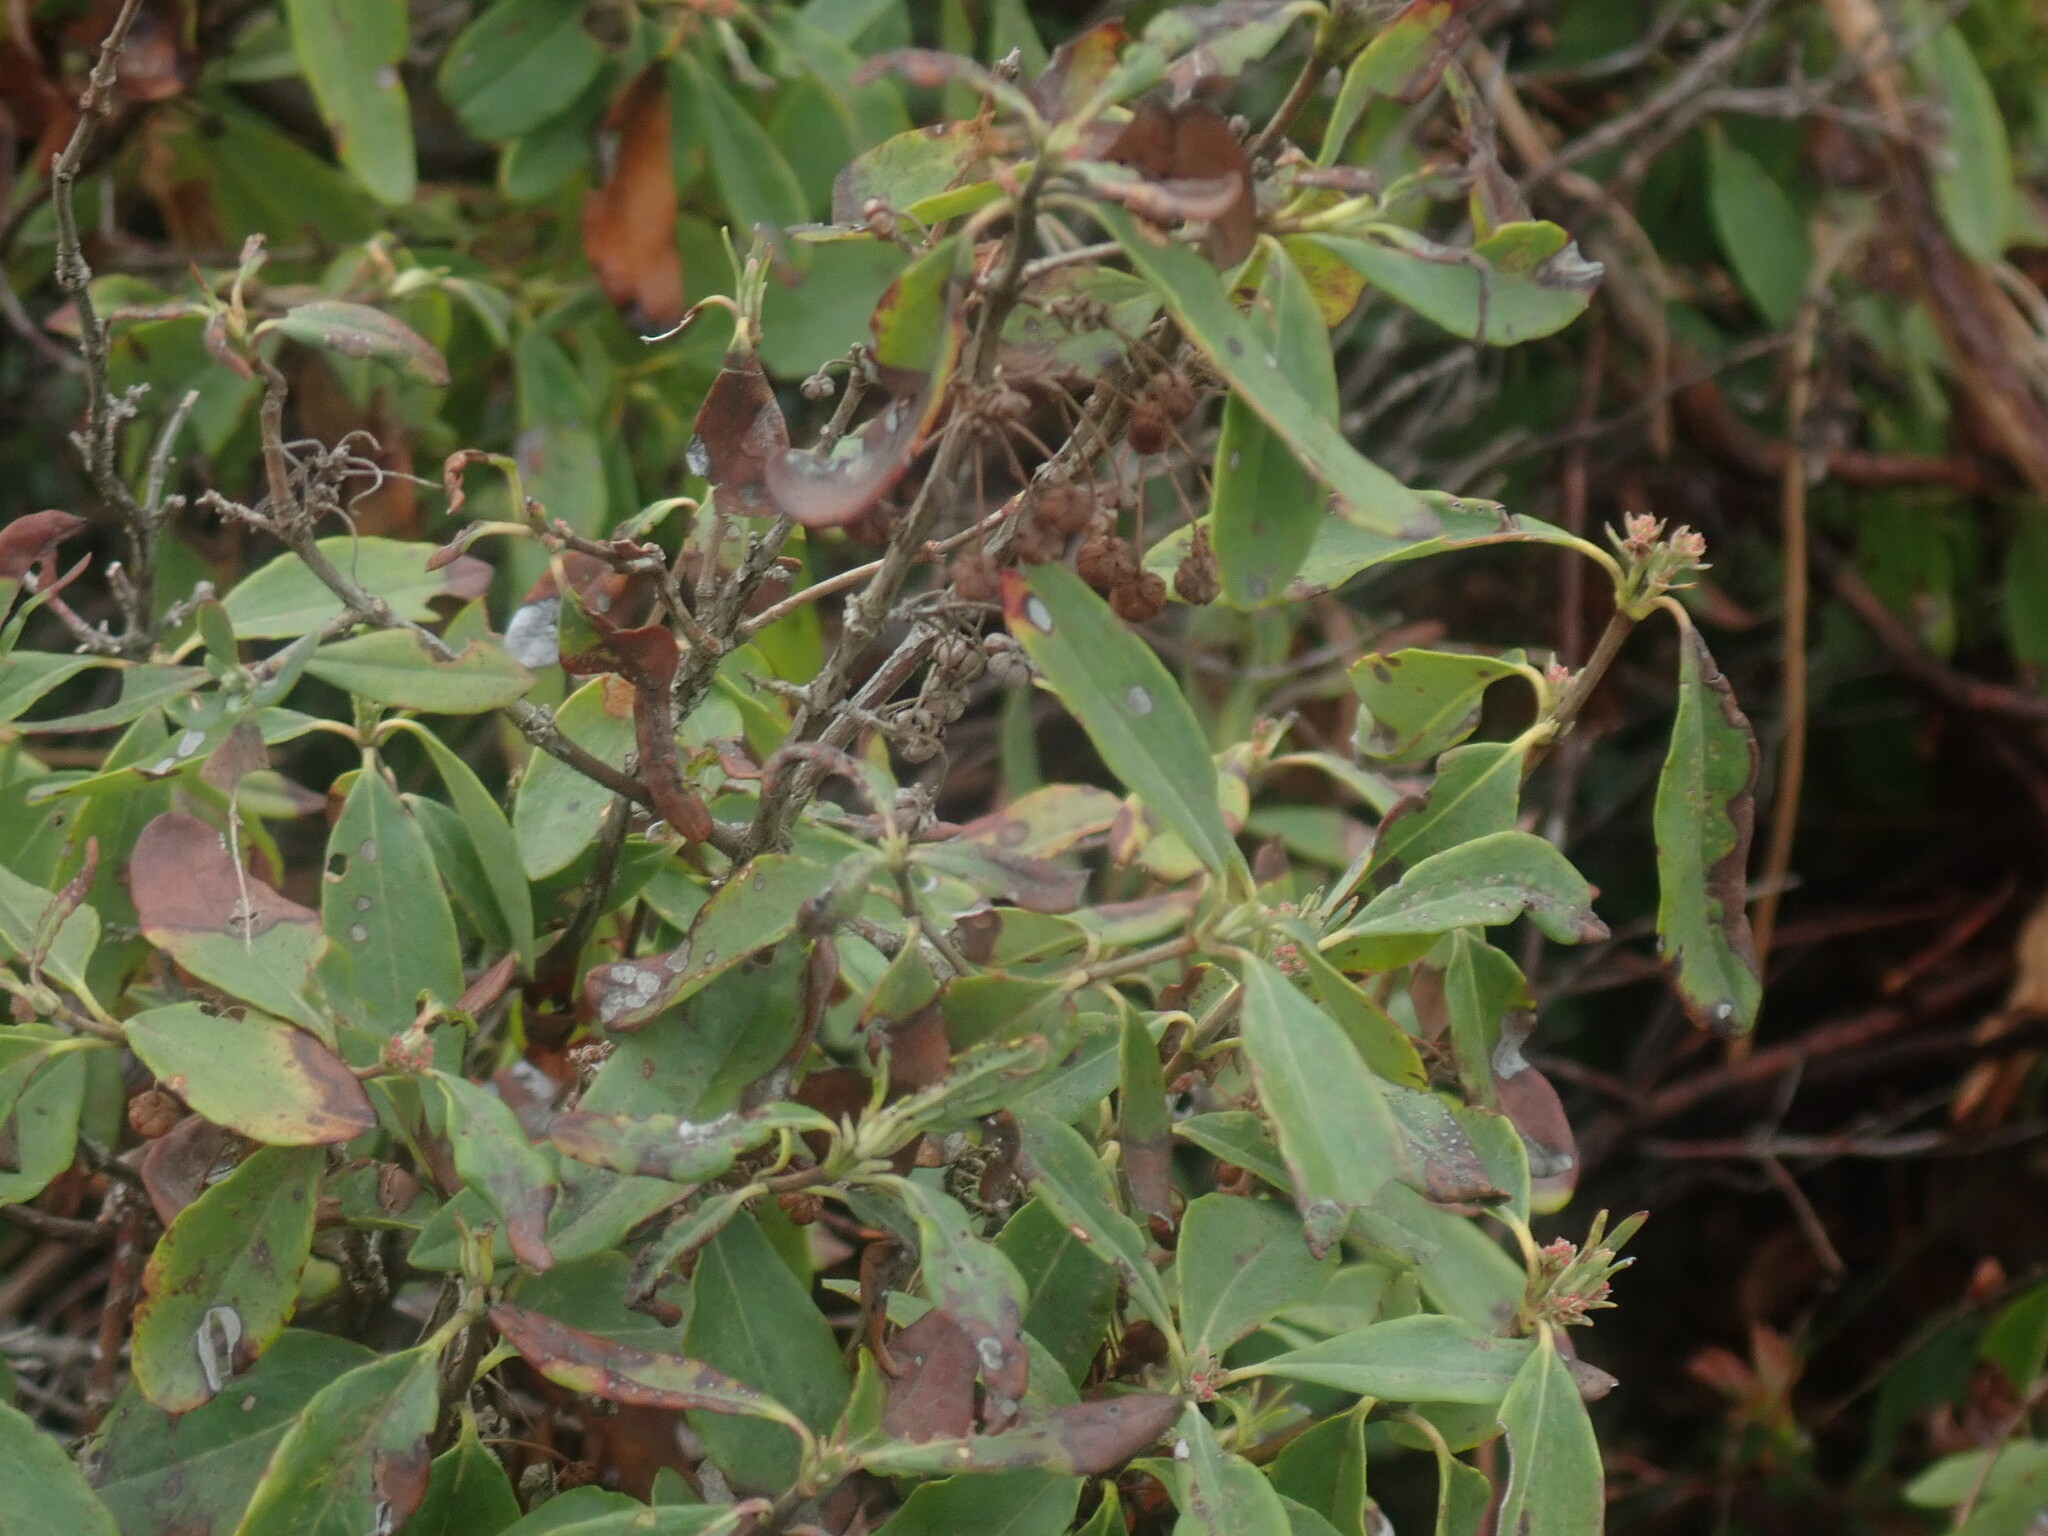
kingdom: Plantae
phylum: Tracheophyta
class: Magnoliopsida
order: Ericales
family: Ericaceae
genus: Kalmia
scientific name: Kalmia angustifolia
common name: Sheep-laurel
